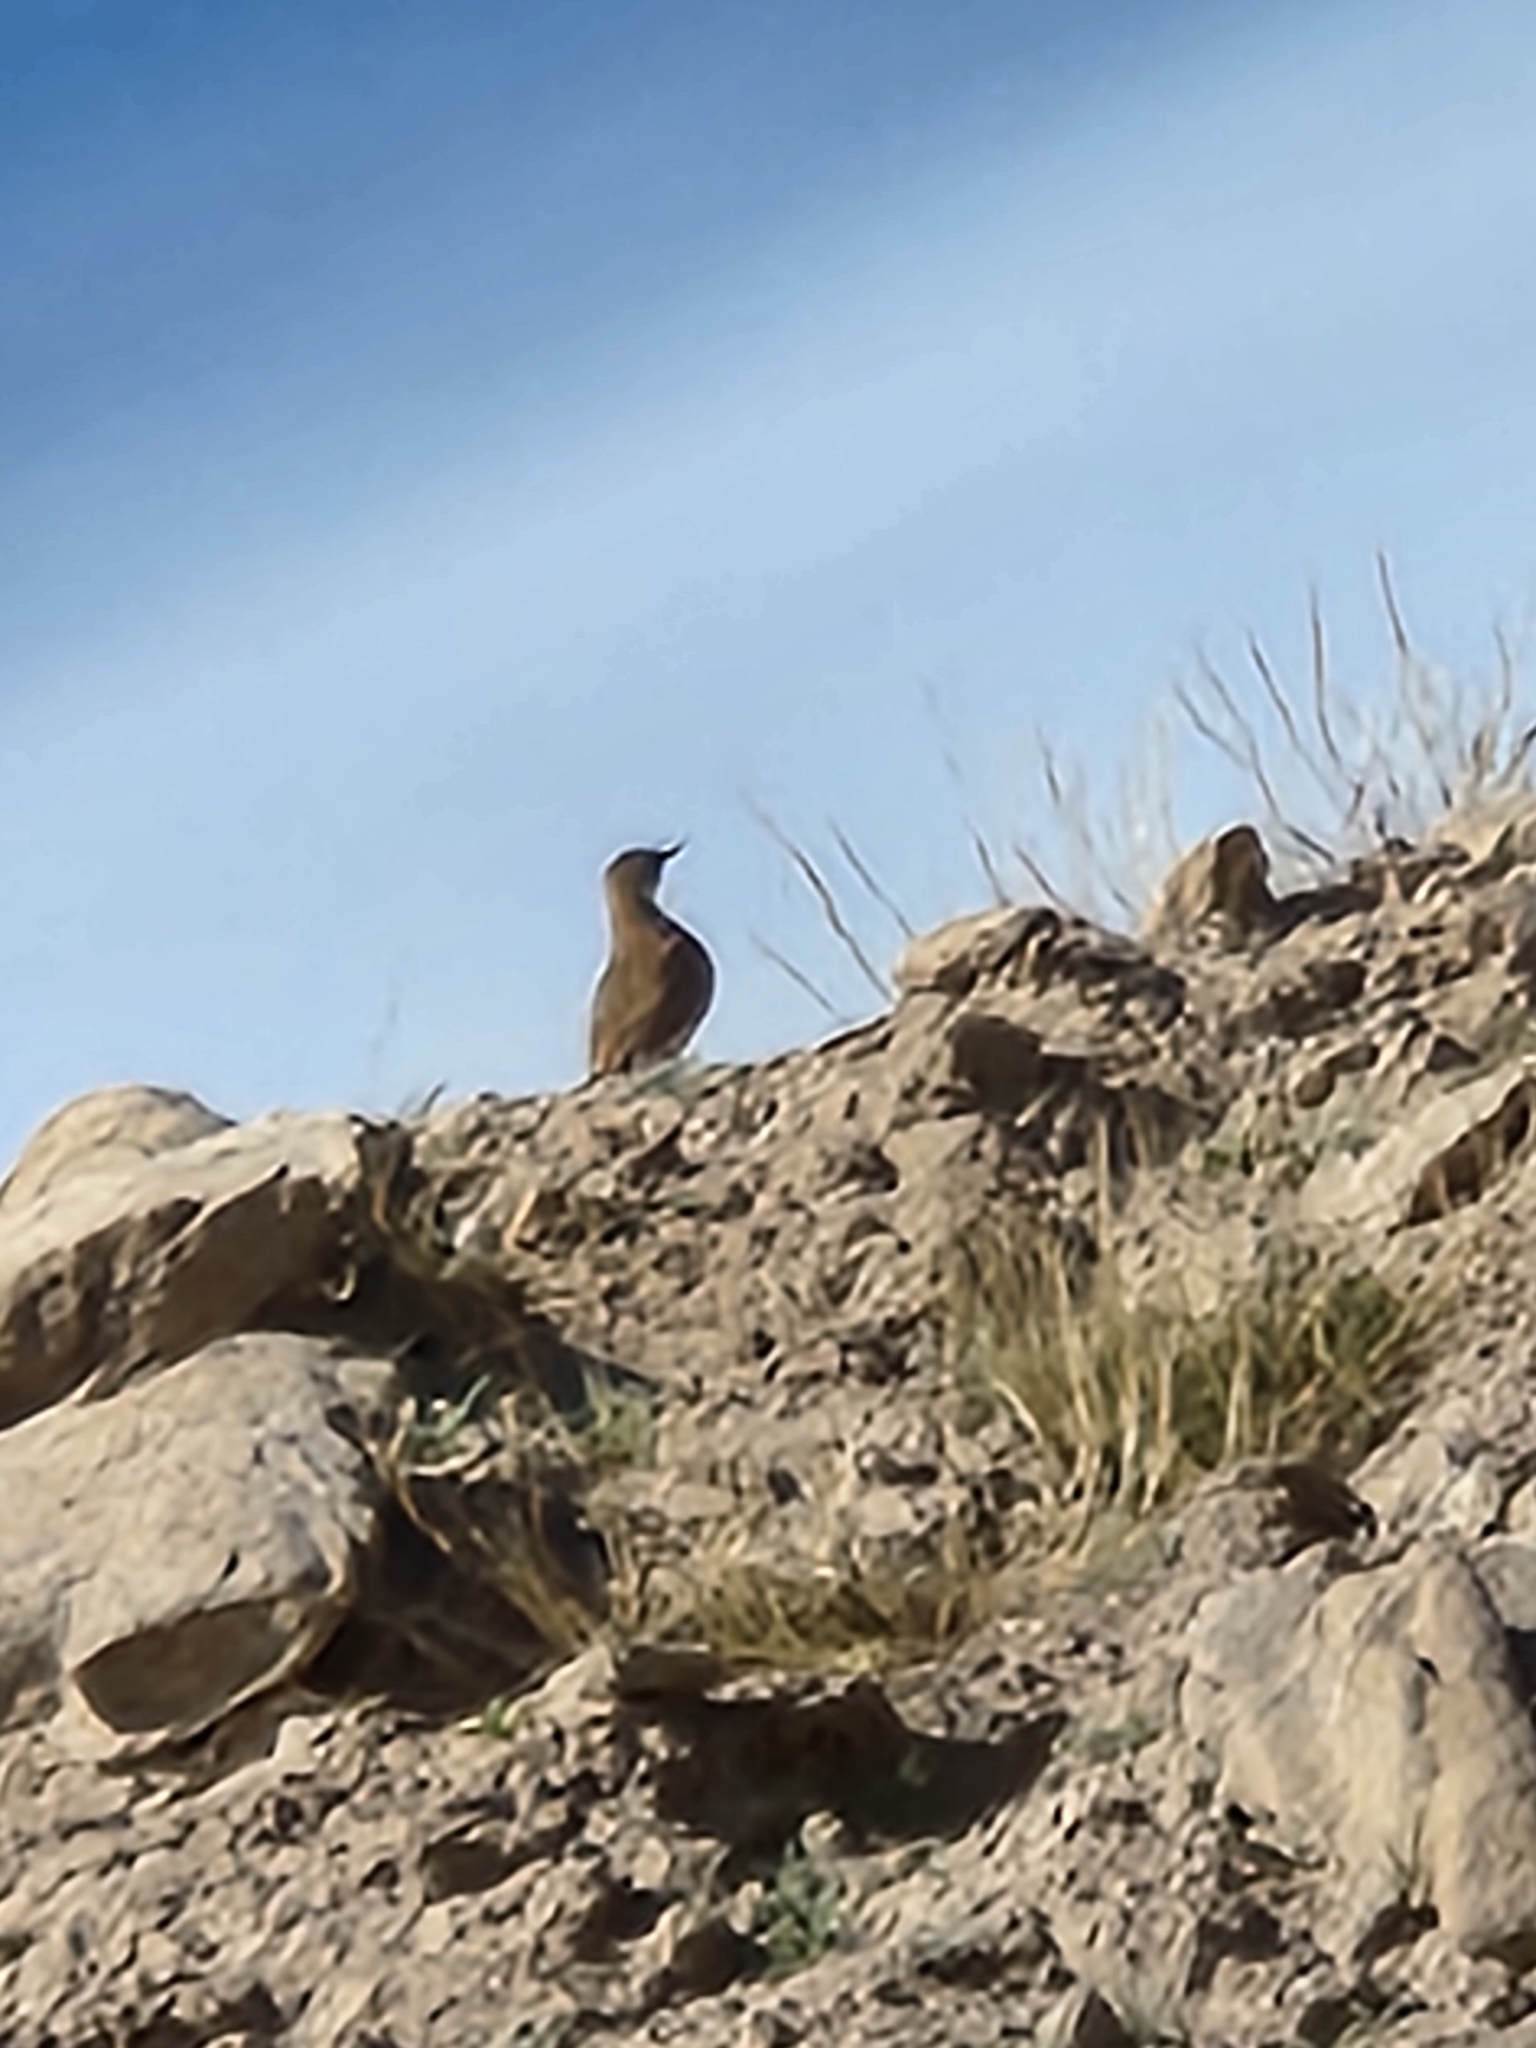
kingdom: Animalia
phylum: Chordata
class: Aves
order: Passeriformes
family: Troglodytidae
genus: Salpinctes
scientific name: Salpinctes obsoletus
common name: Rock wren
